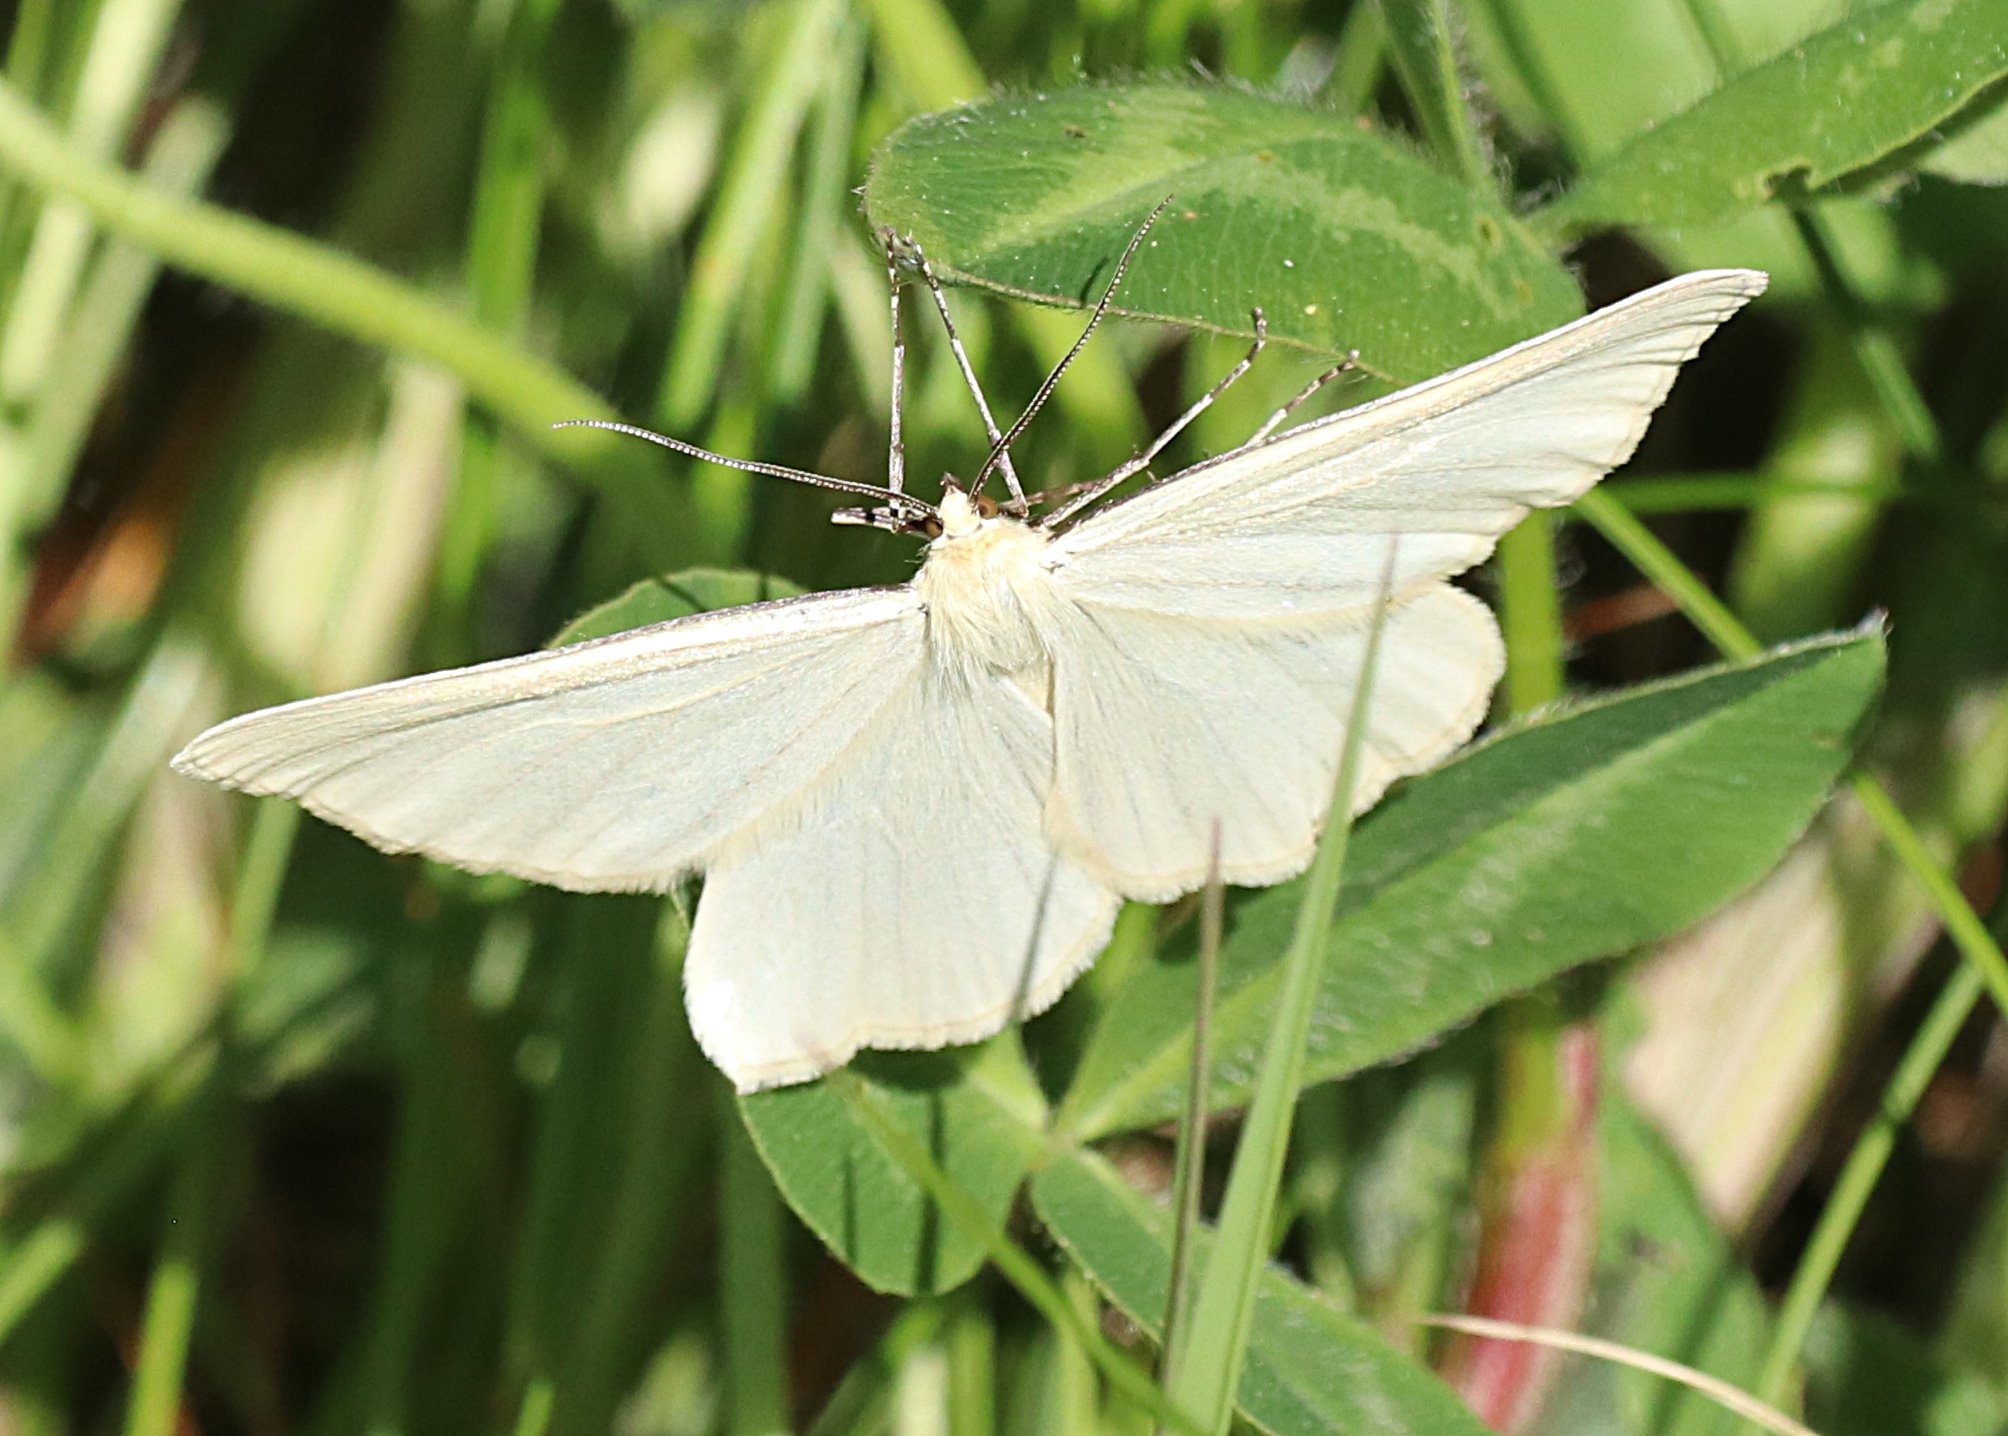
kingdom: Animalia
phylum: Arthropoda
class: Insecta
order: Lepidoptera
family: Geometridae
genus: Siona
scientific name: Siona lineata
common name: Black-veined moth
